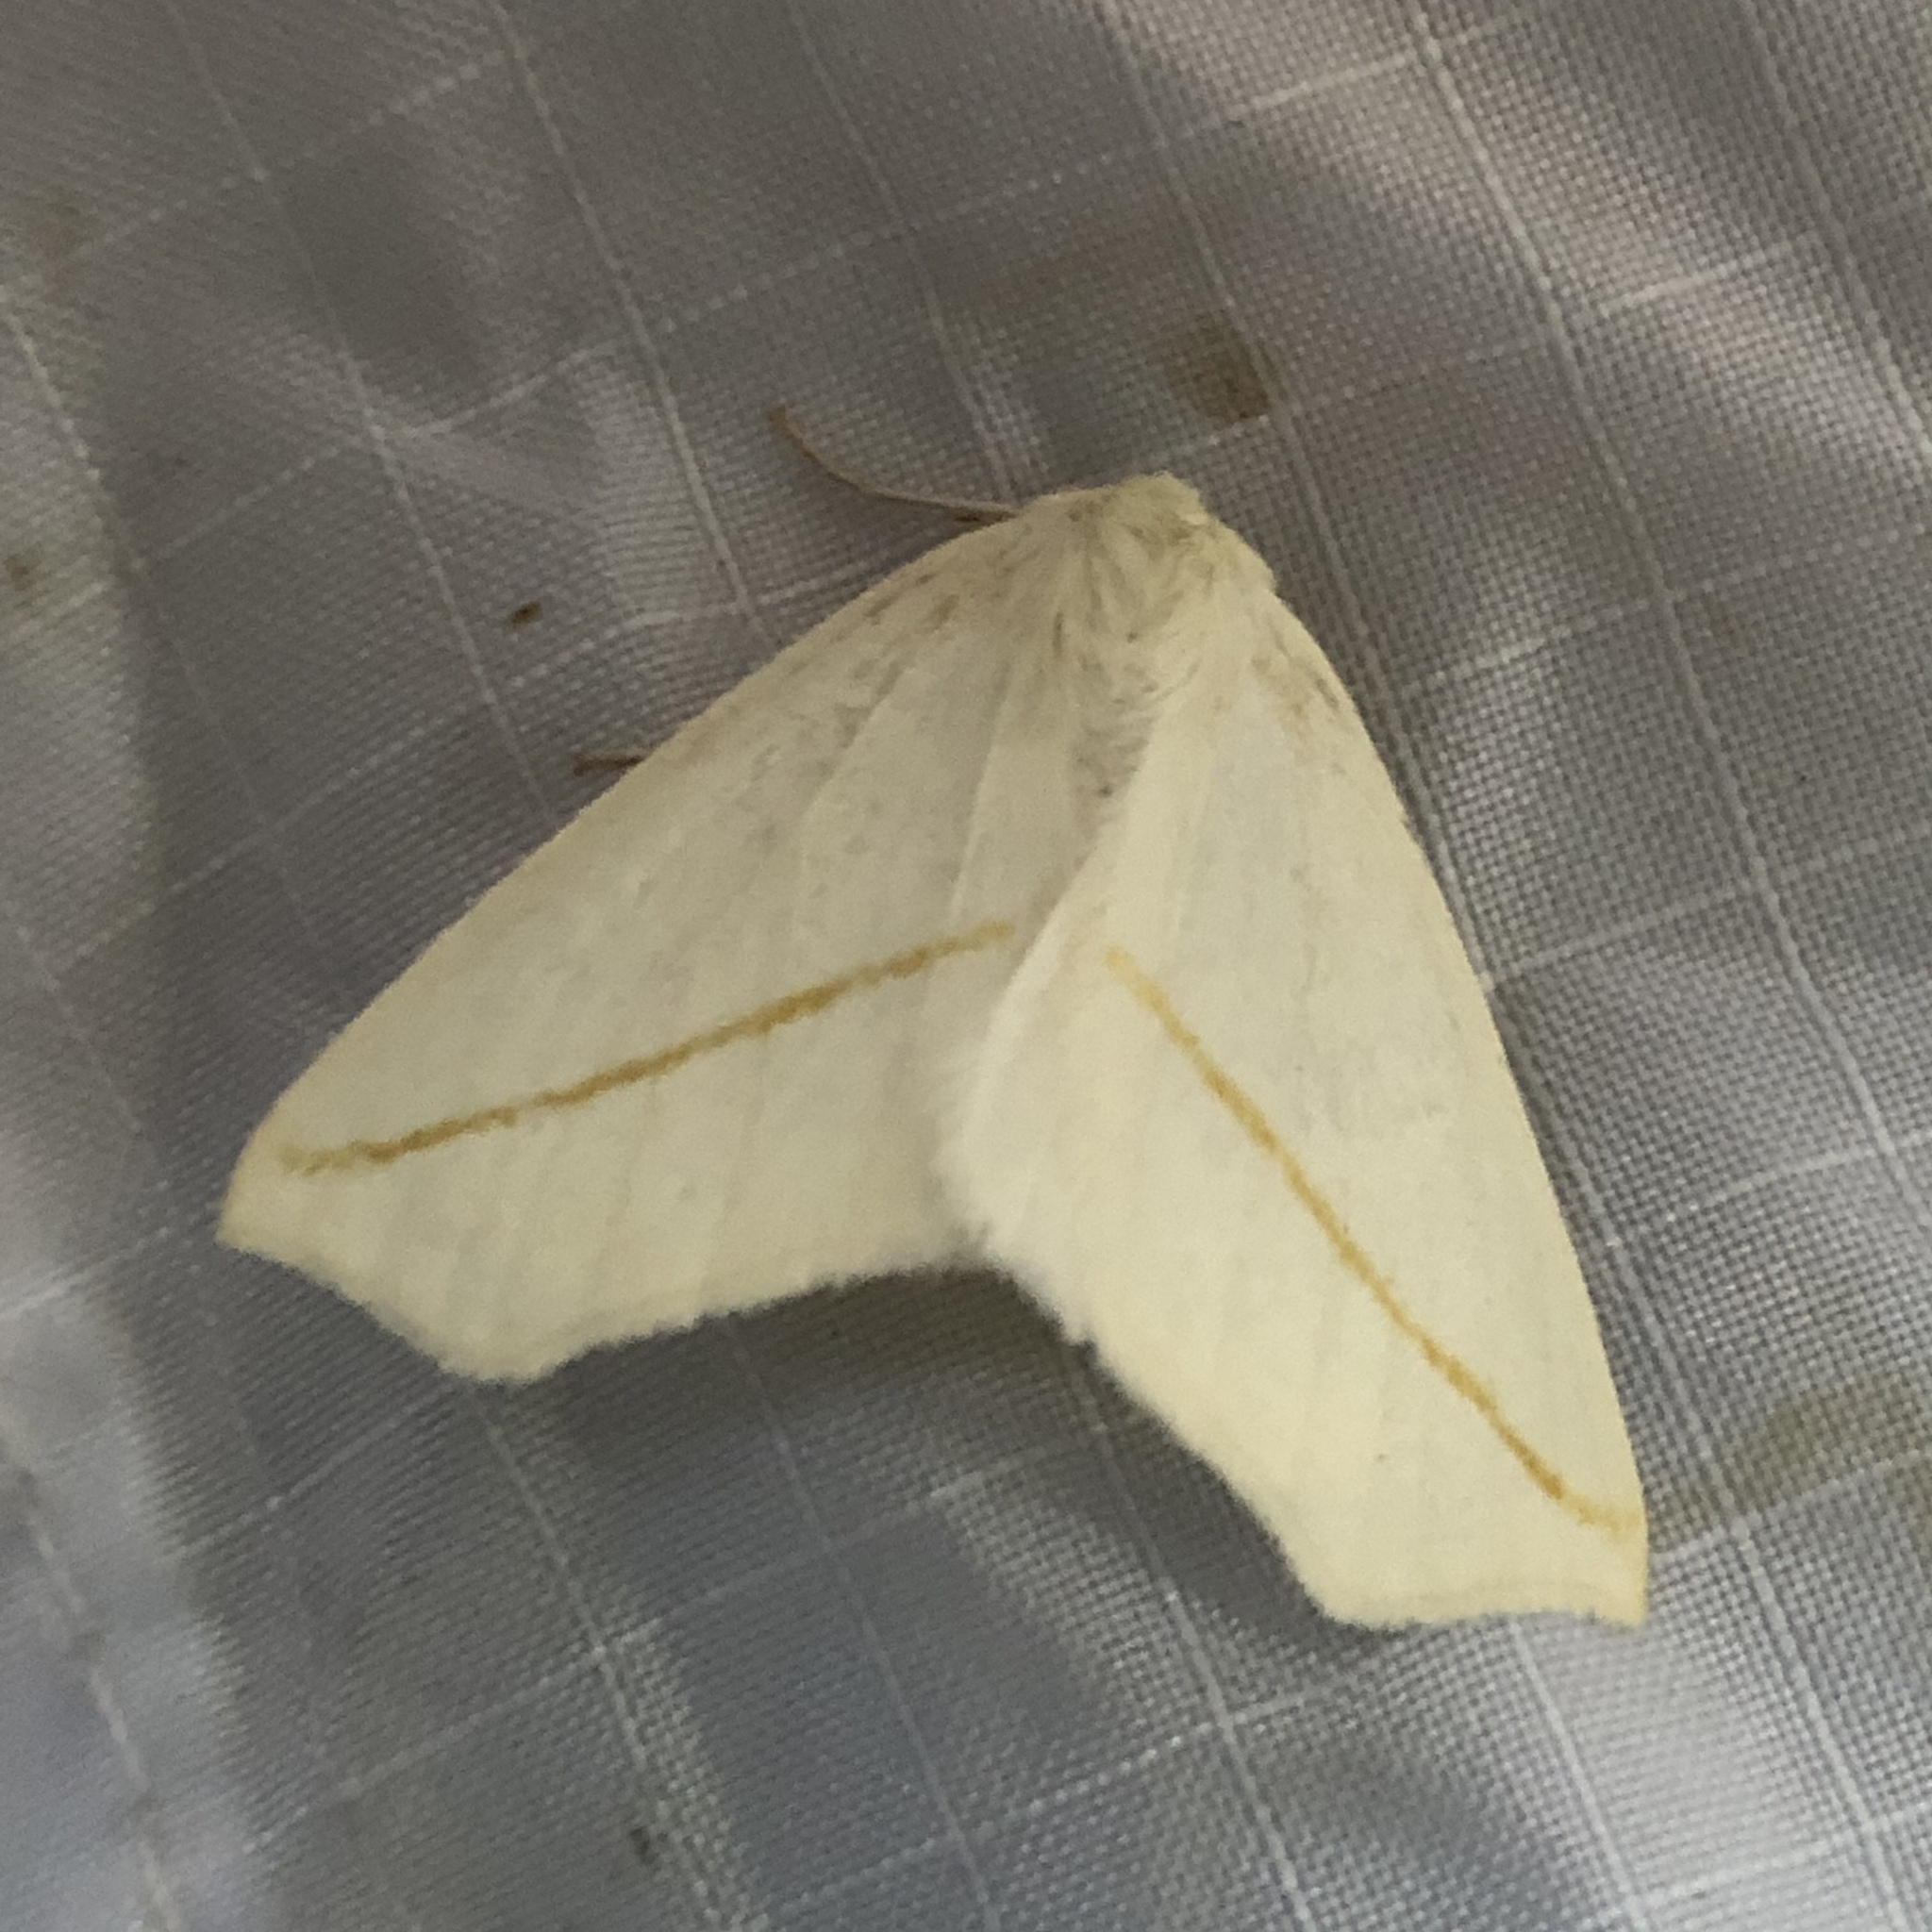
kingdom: Animalia
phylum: Arthropoda
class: Insecta
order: Lepidoptera
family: Geometridae
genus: Tetracis
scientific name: Tetracis cachexiata
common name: White slant-line
